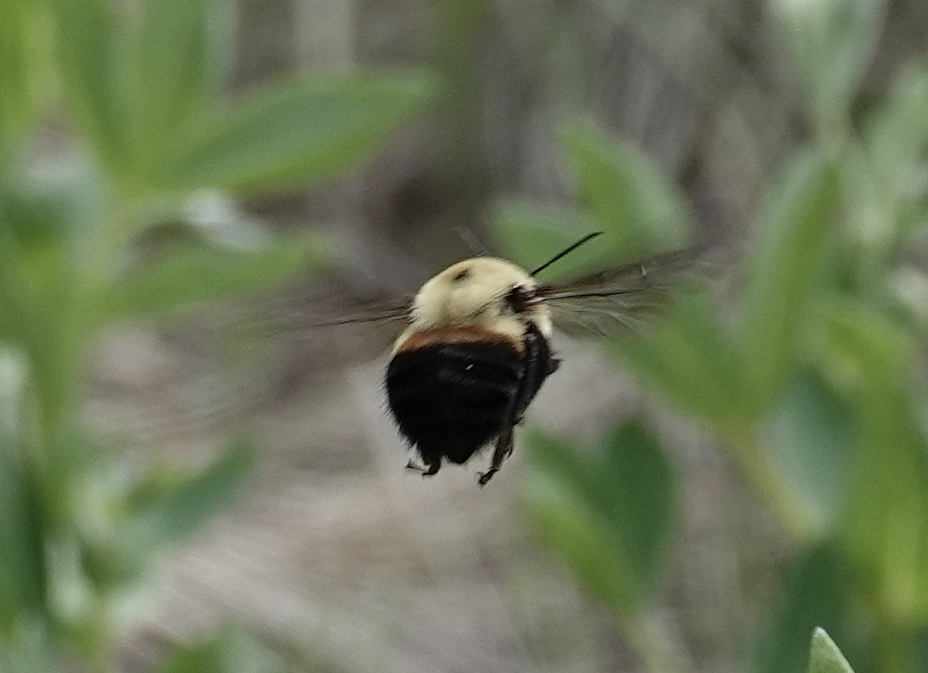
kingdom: Animalia
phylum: Arthropoda
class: Insecta
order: Hymenoptera
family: Apidae
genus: Bombus
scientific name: Bombus griseocollis
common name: Brown-belted bumble bee
